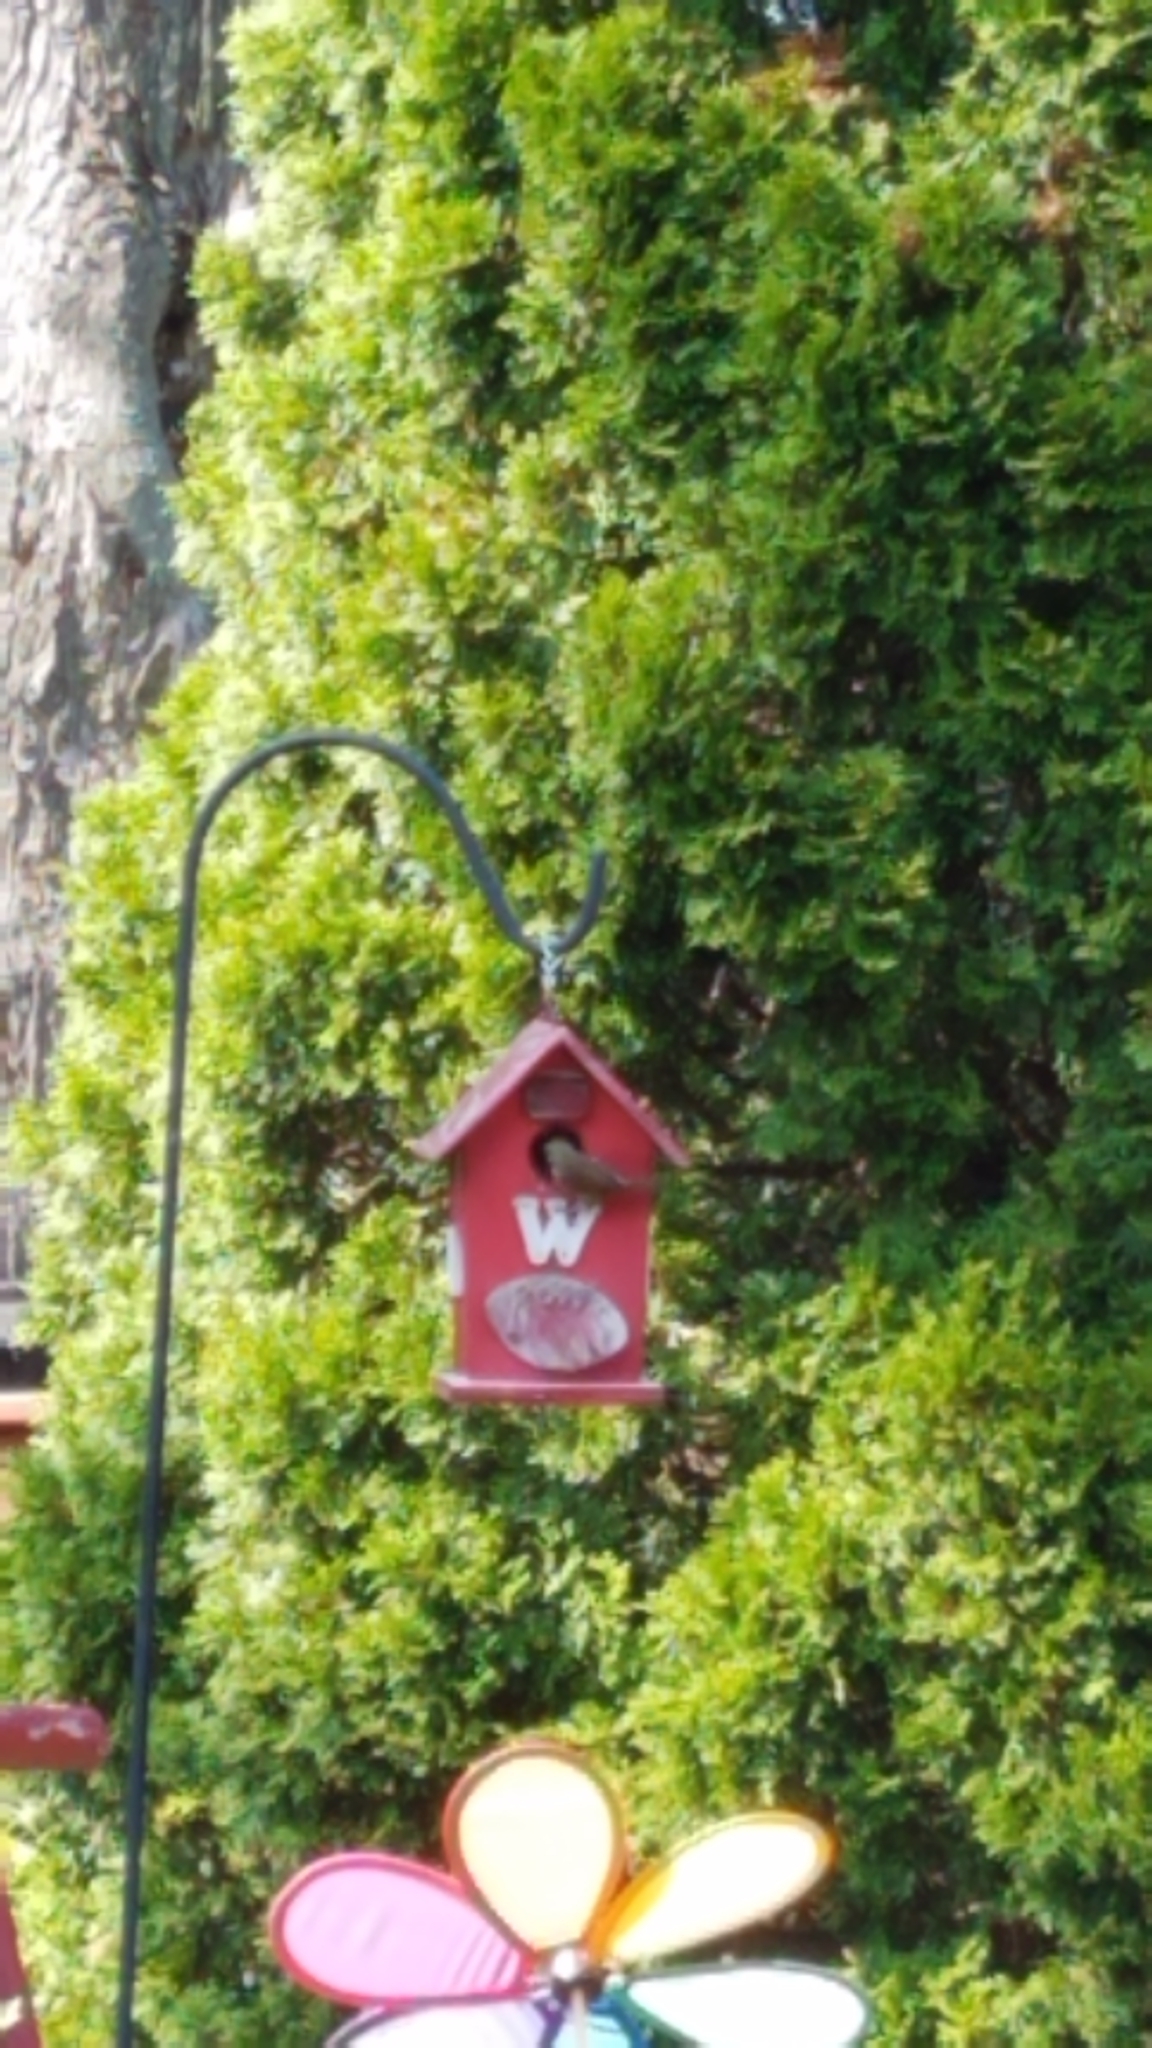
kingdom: Animalia
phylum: Chordata
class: Aves
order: Passeriformes
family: Troglodytidae
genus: Troglodytes
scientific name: Troglodytes aedon
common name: House wren
